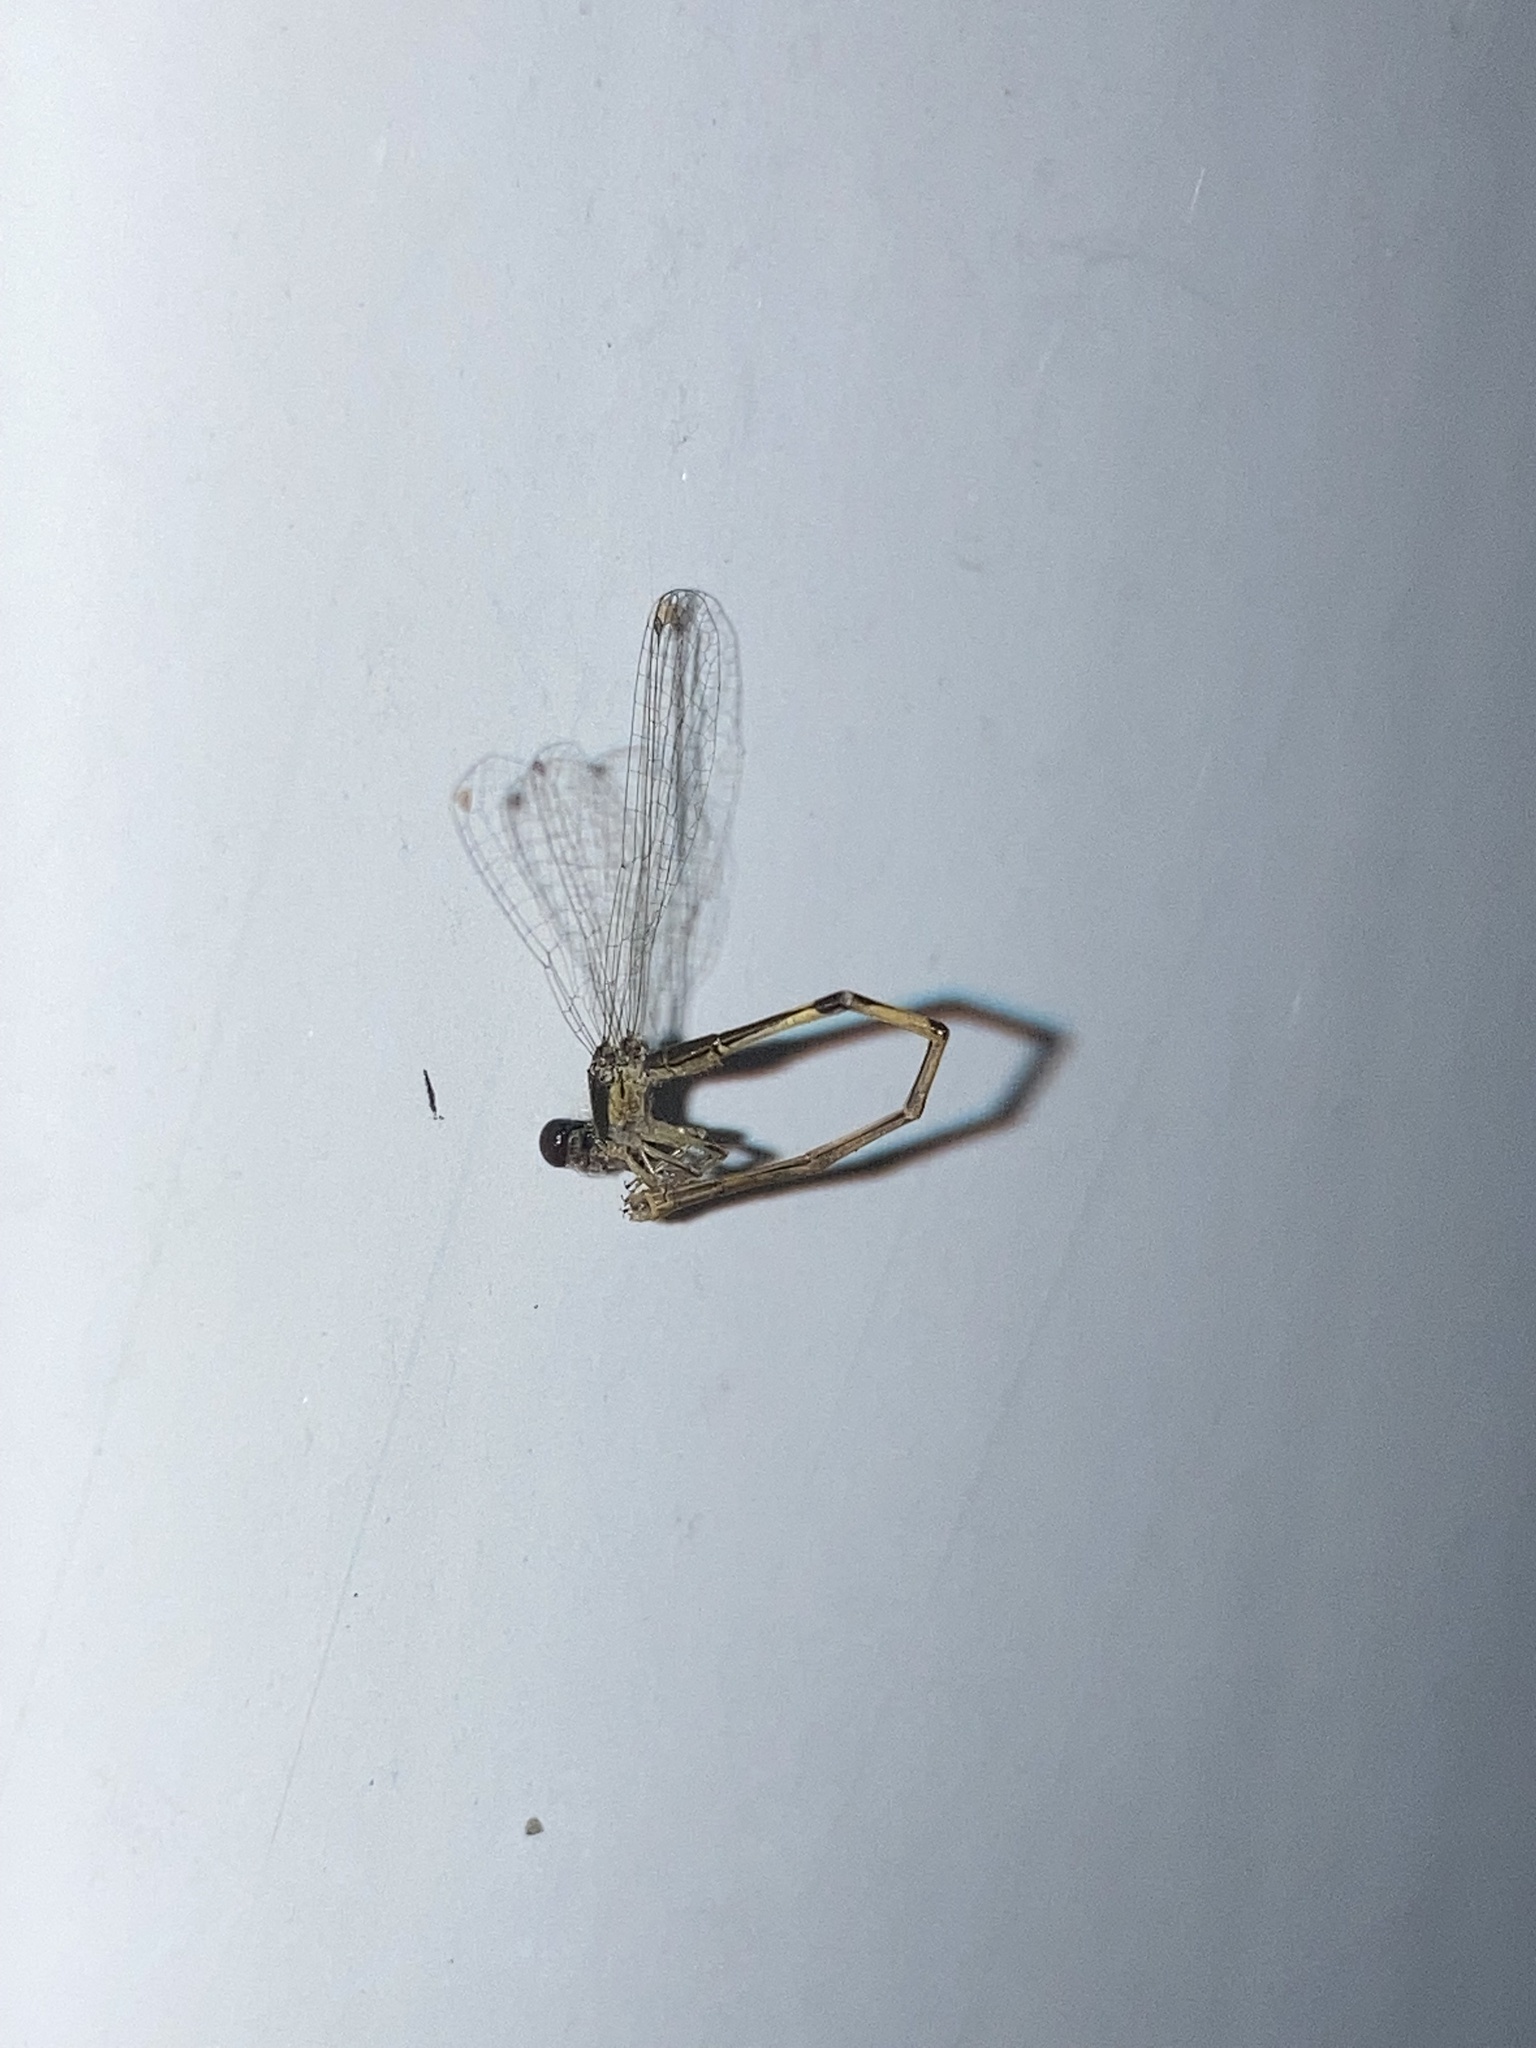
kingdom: Animalia
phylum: Arthropoda
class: Insecta
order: Odonata
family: Coenagrionidae
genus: Ischnura
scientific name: Ischnura hastata
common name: Citrine forktail
